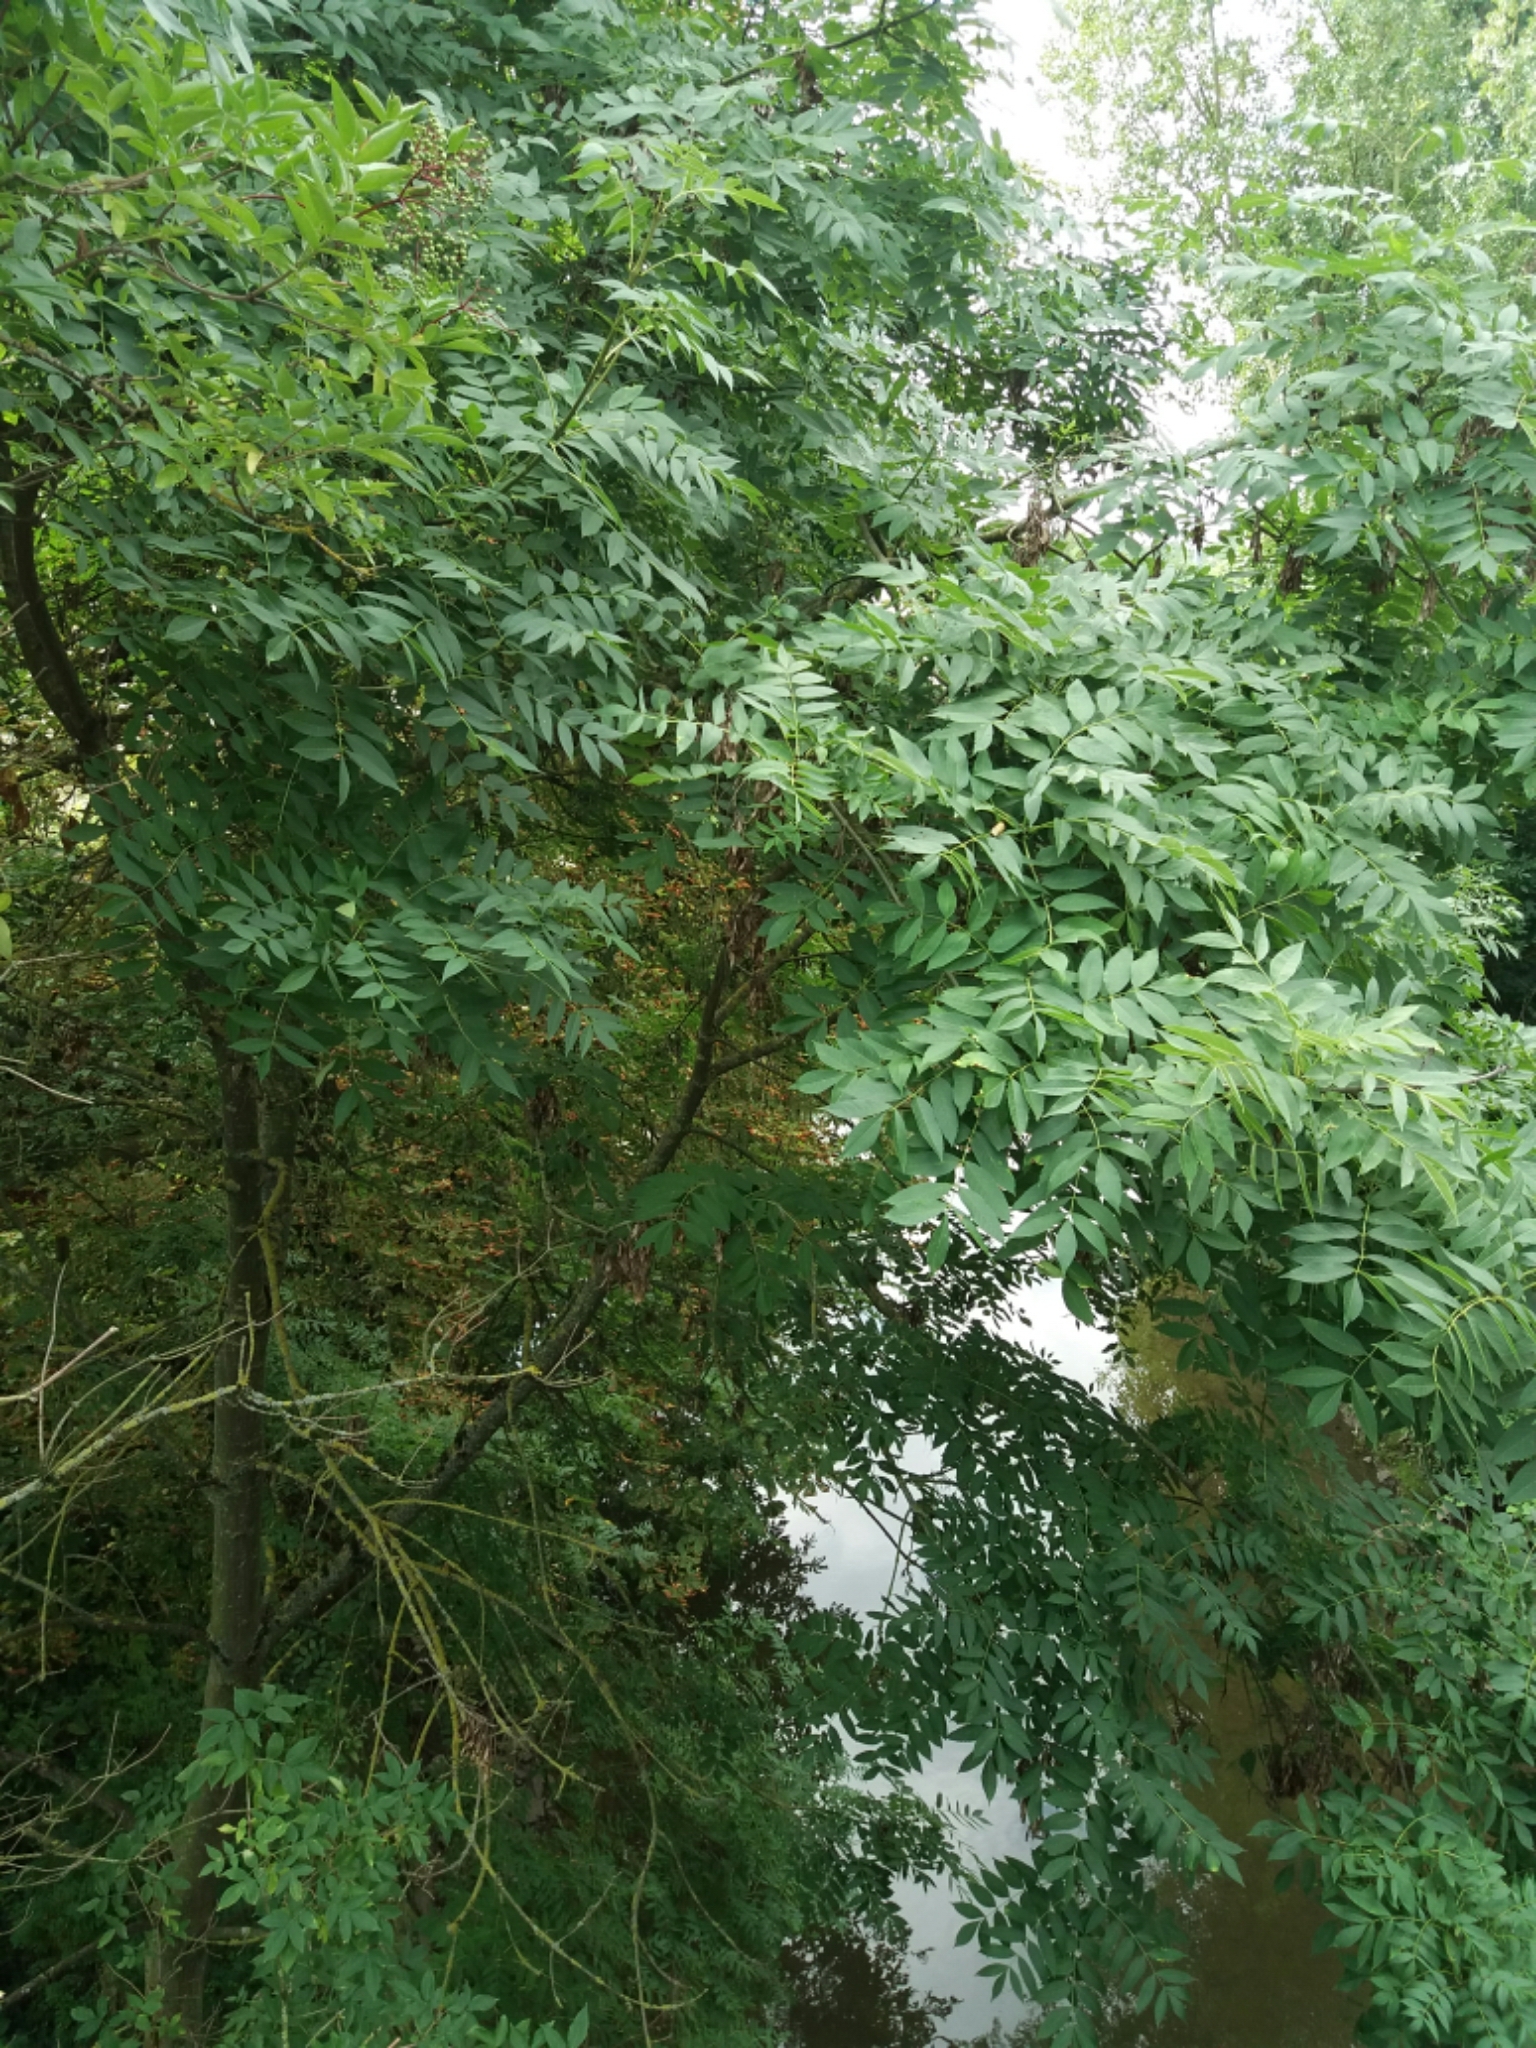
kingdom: Plantae
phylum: Tracheophyta
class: Magnoliopsida
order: Lamiales
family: Oleaceae
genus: Fraxinus
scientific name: Fraxinus excelsior
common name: European ash
